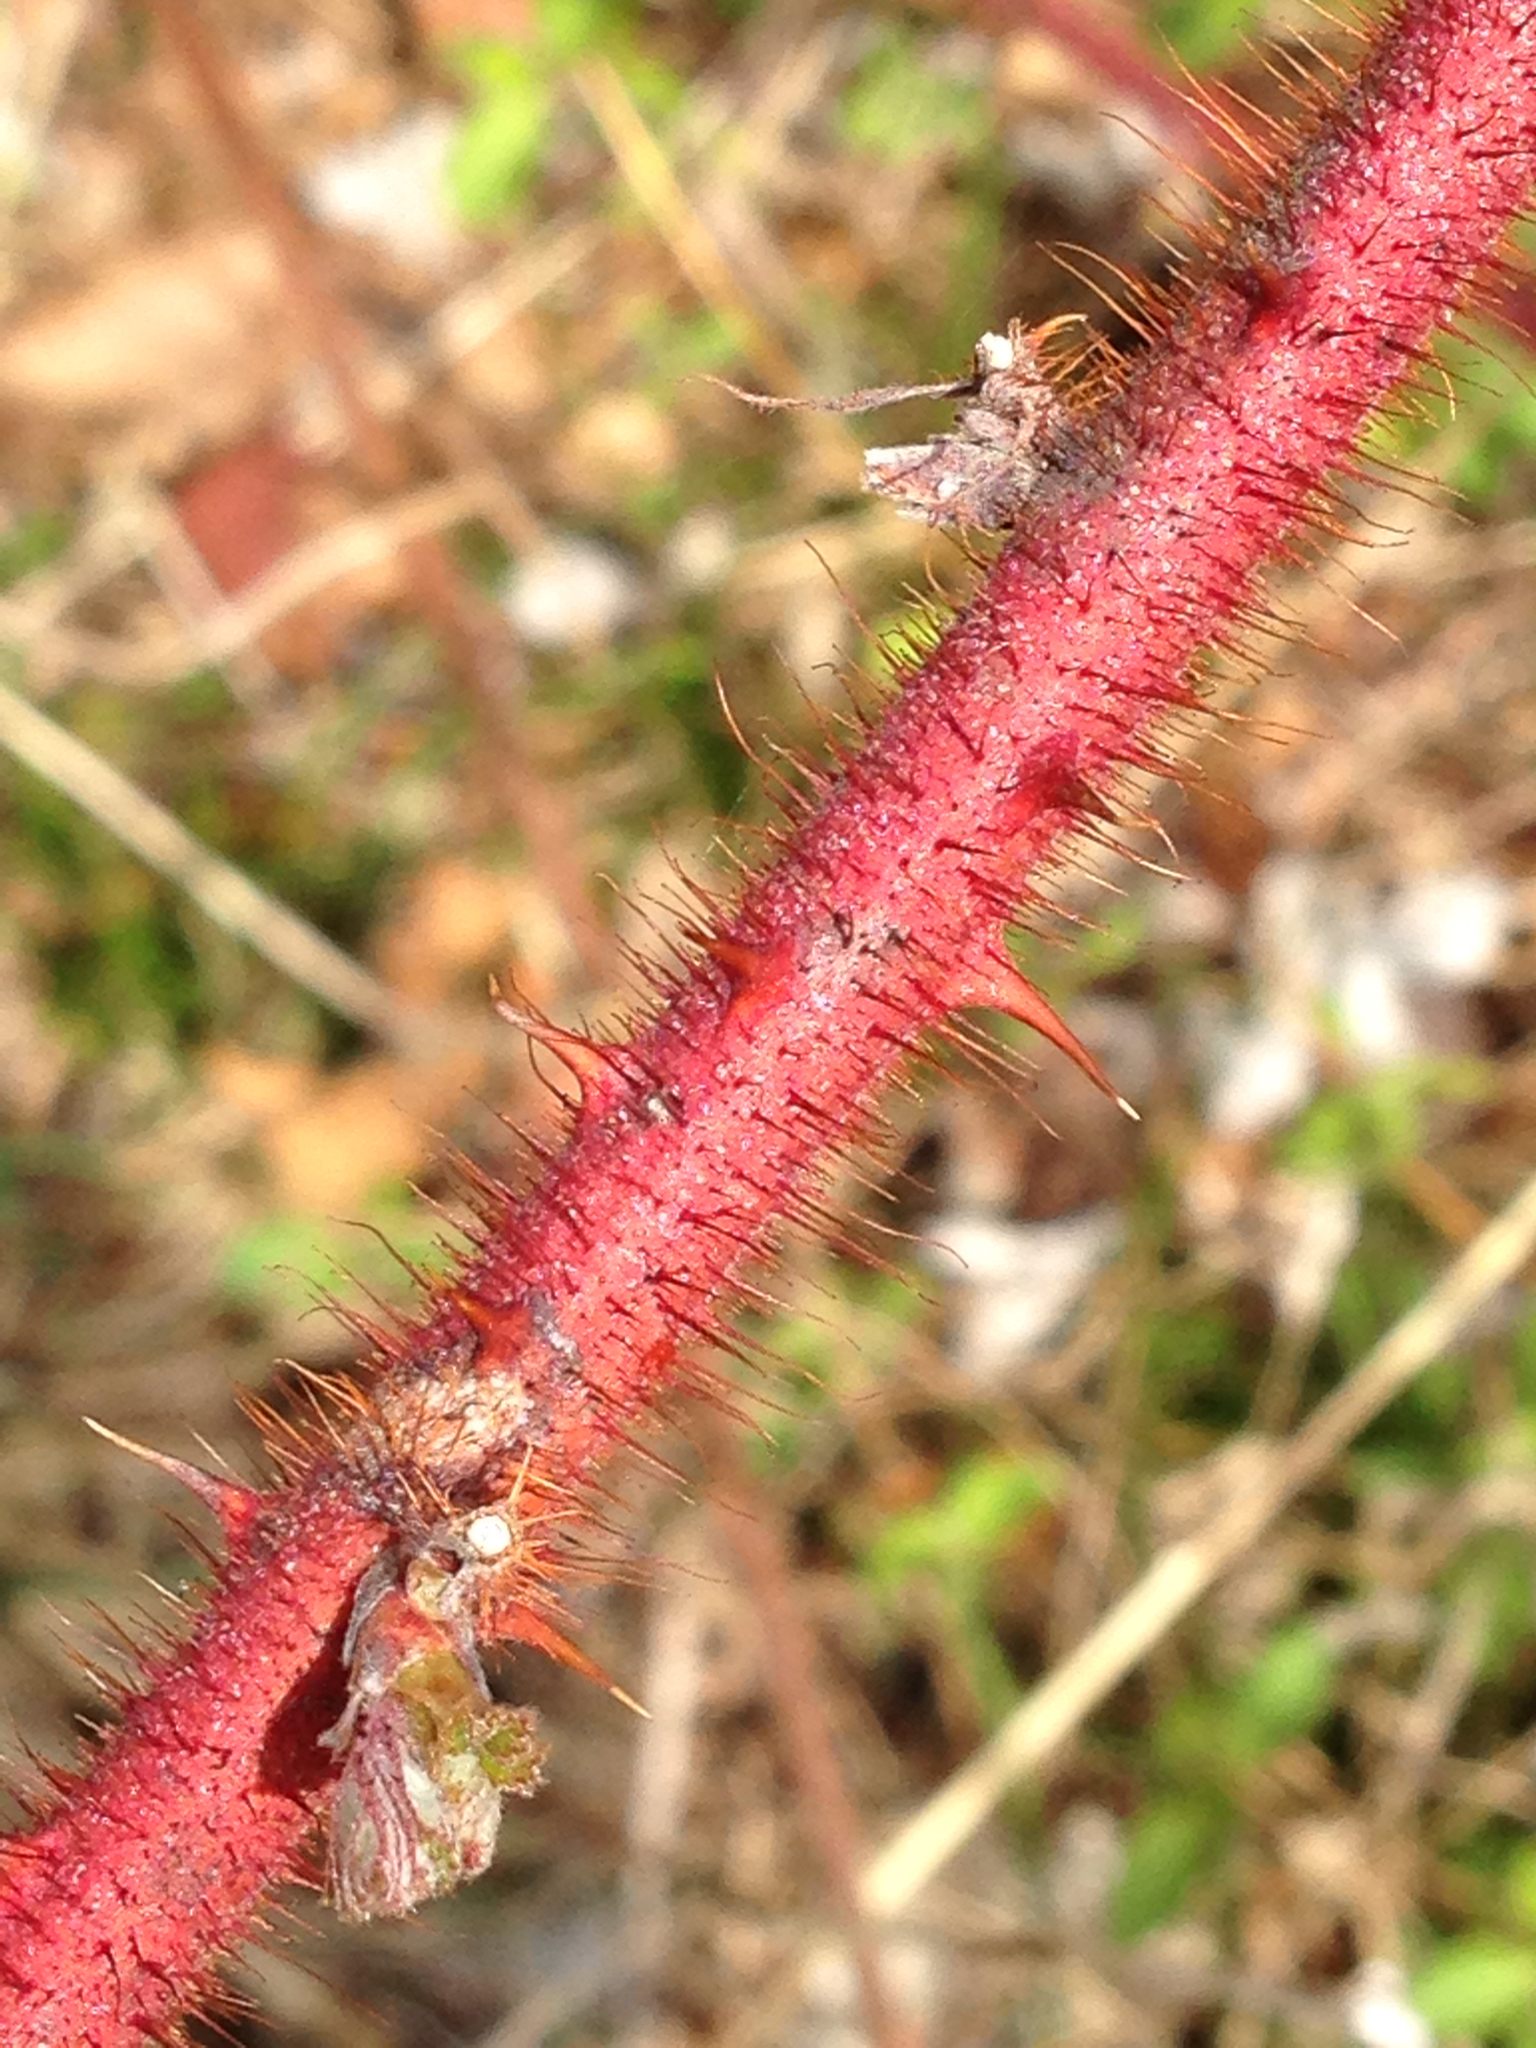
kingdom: Plantae
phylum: Tracheophyta
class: Magnoliopsida
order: Rosales
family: Rosaceae
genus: Rubus
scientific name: Rubus phoenicolasius
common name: Japanese wineberry
